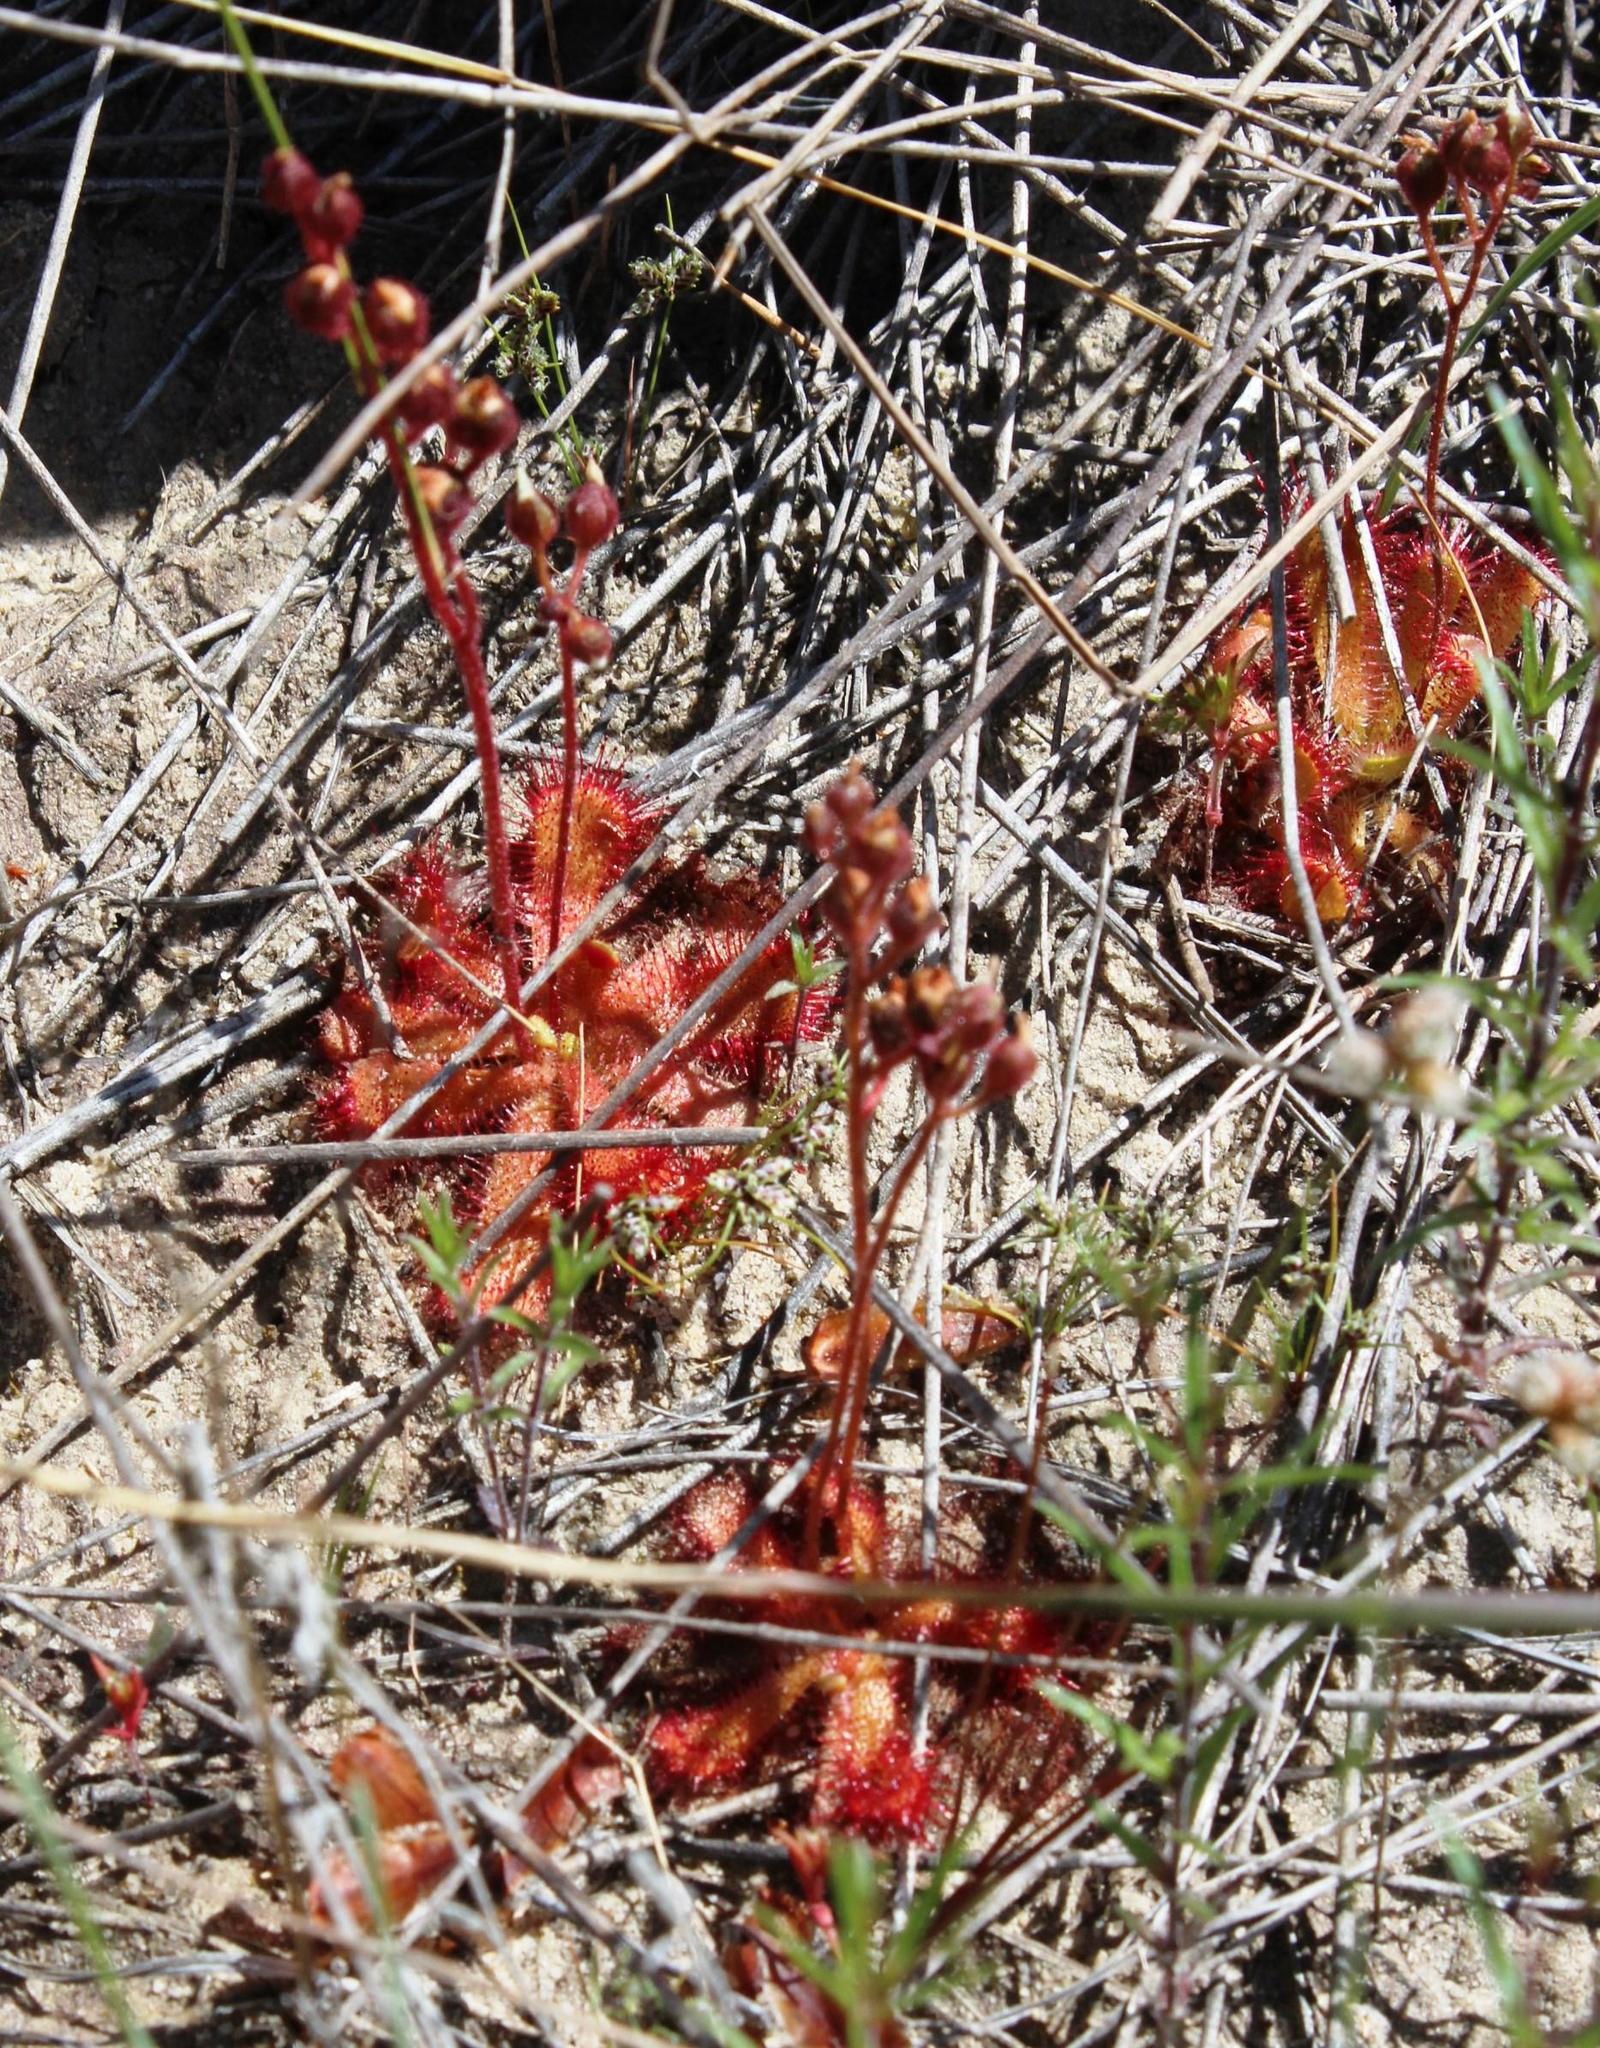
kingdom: Plantae
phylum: Tracheophyta
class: Magnoliopsida
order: Caryophyllales
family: Droseraceae
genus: Drosera
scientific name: Drosera trinervia
